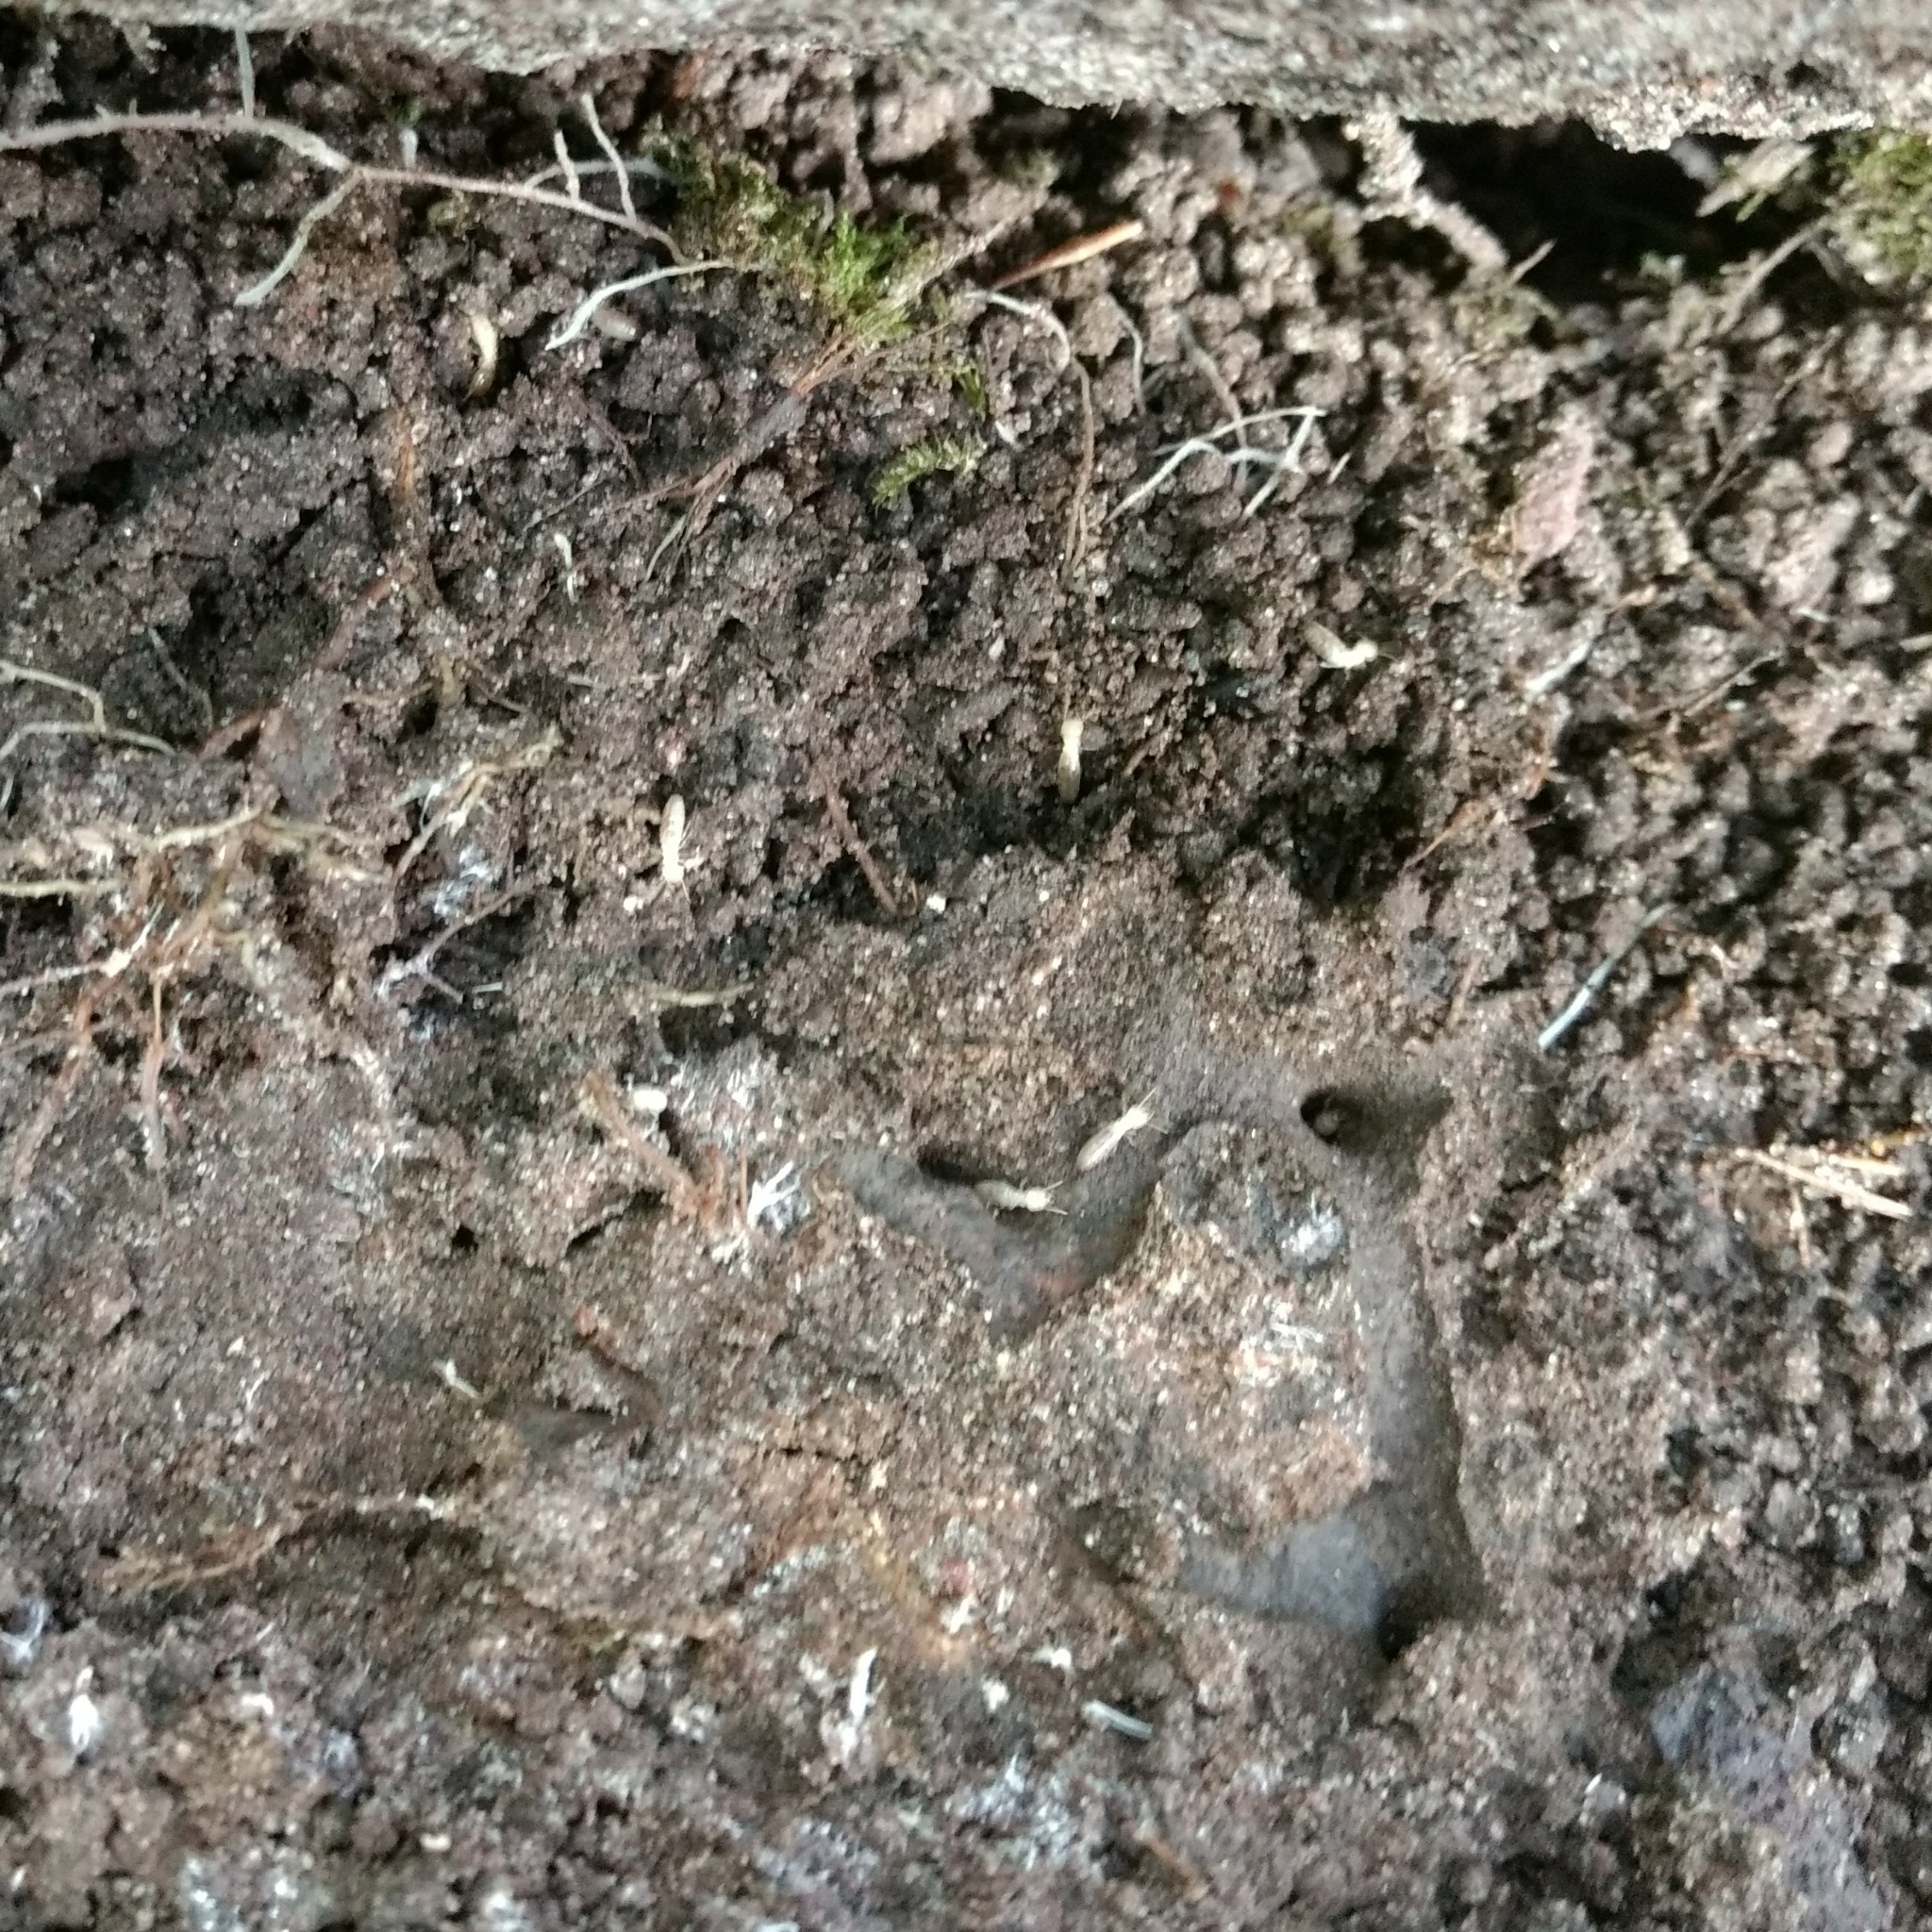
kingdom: Animalia
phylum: Arthropoda
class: Insecta
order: Blattodea
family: Rhinotermitidae
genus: Reticulitermes
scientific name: Reticulitermes flavipes
